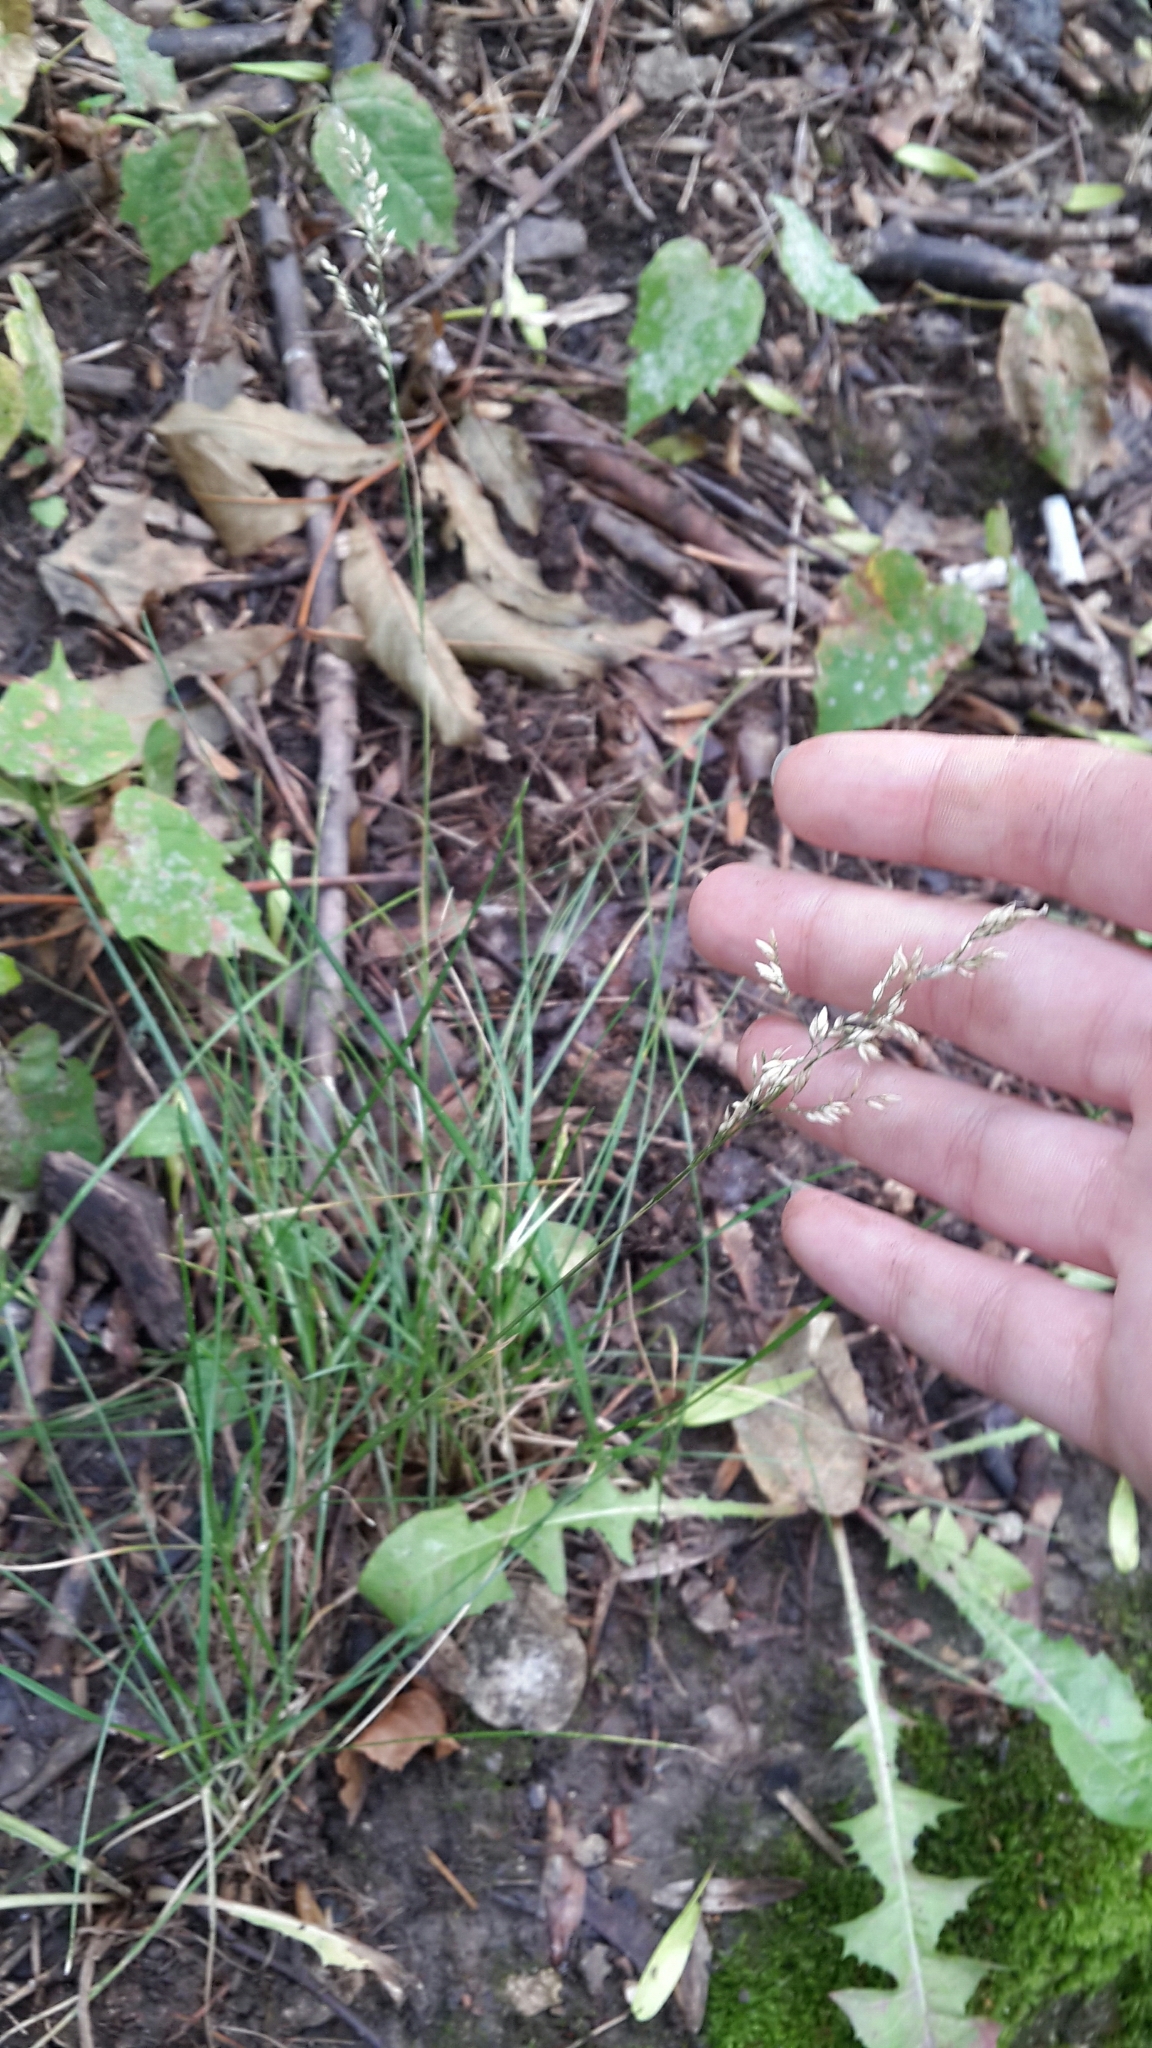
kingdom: Plantae
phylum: Tracheophyta
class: Liliopsida
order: Poales
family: Poaceae
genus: Poa
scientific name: Poa pratensis
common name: Kentucky bluegrass
